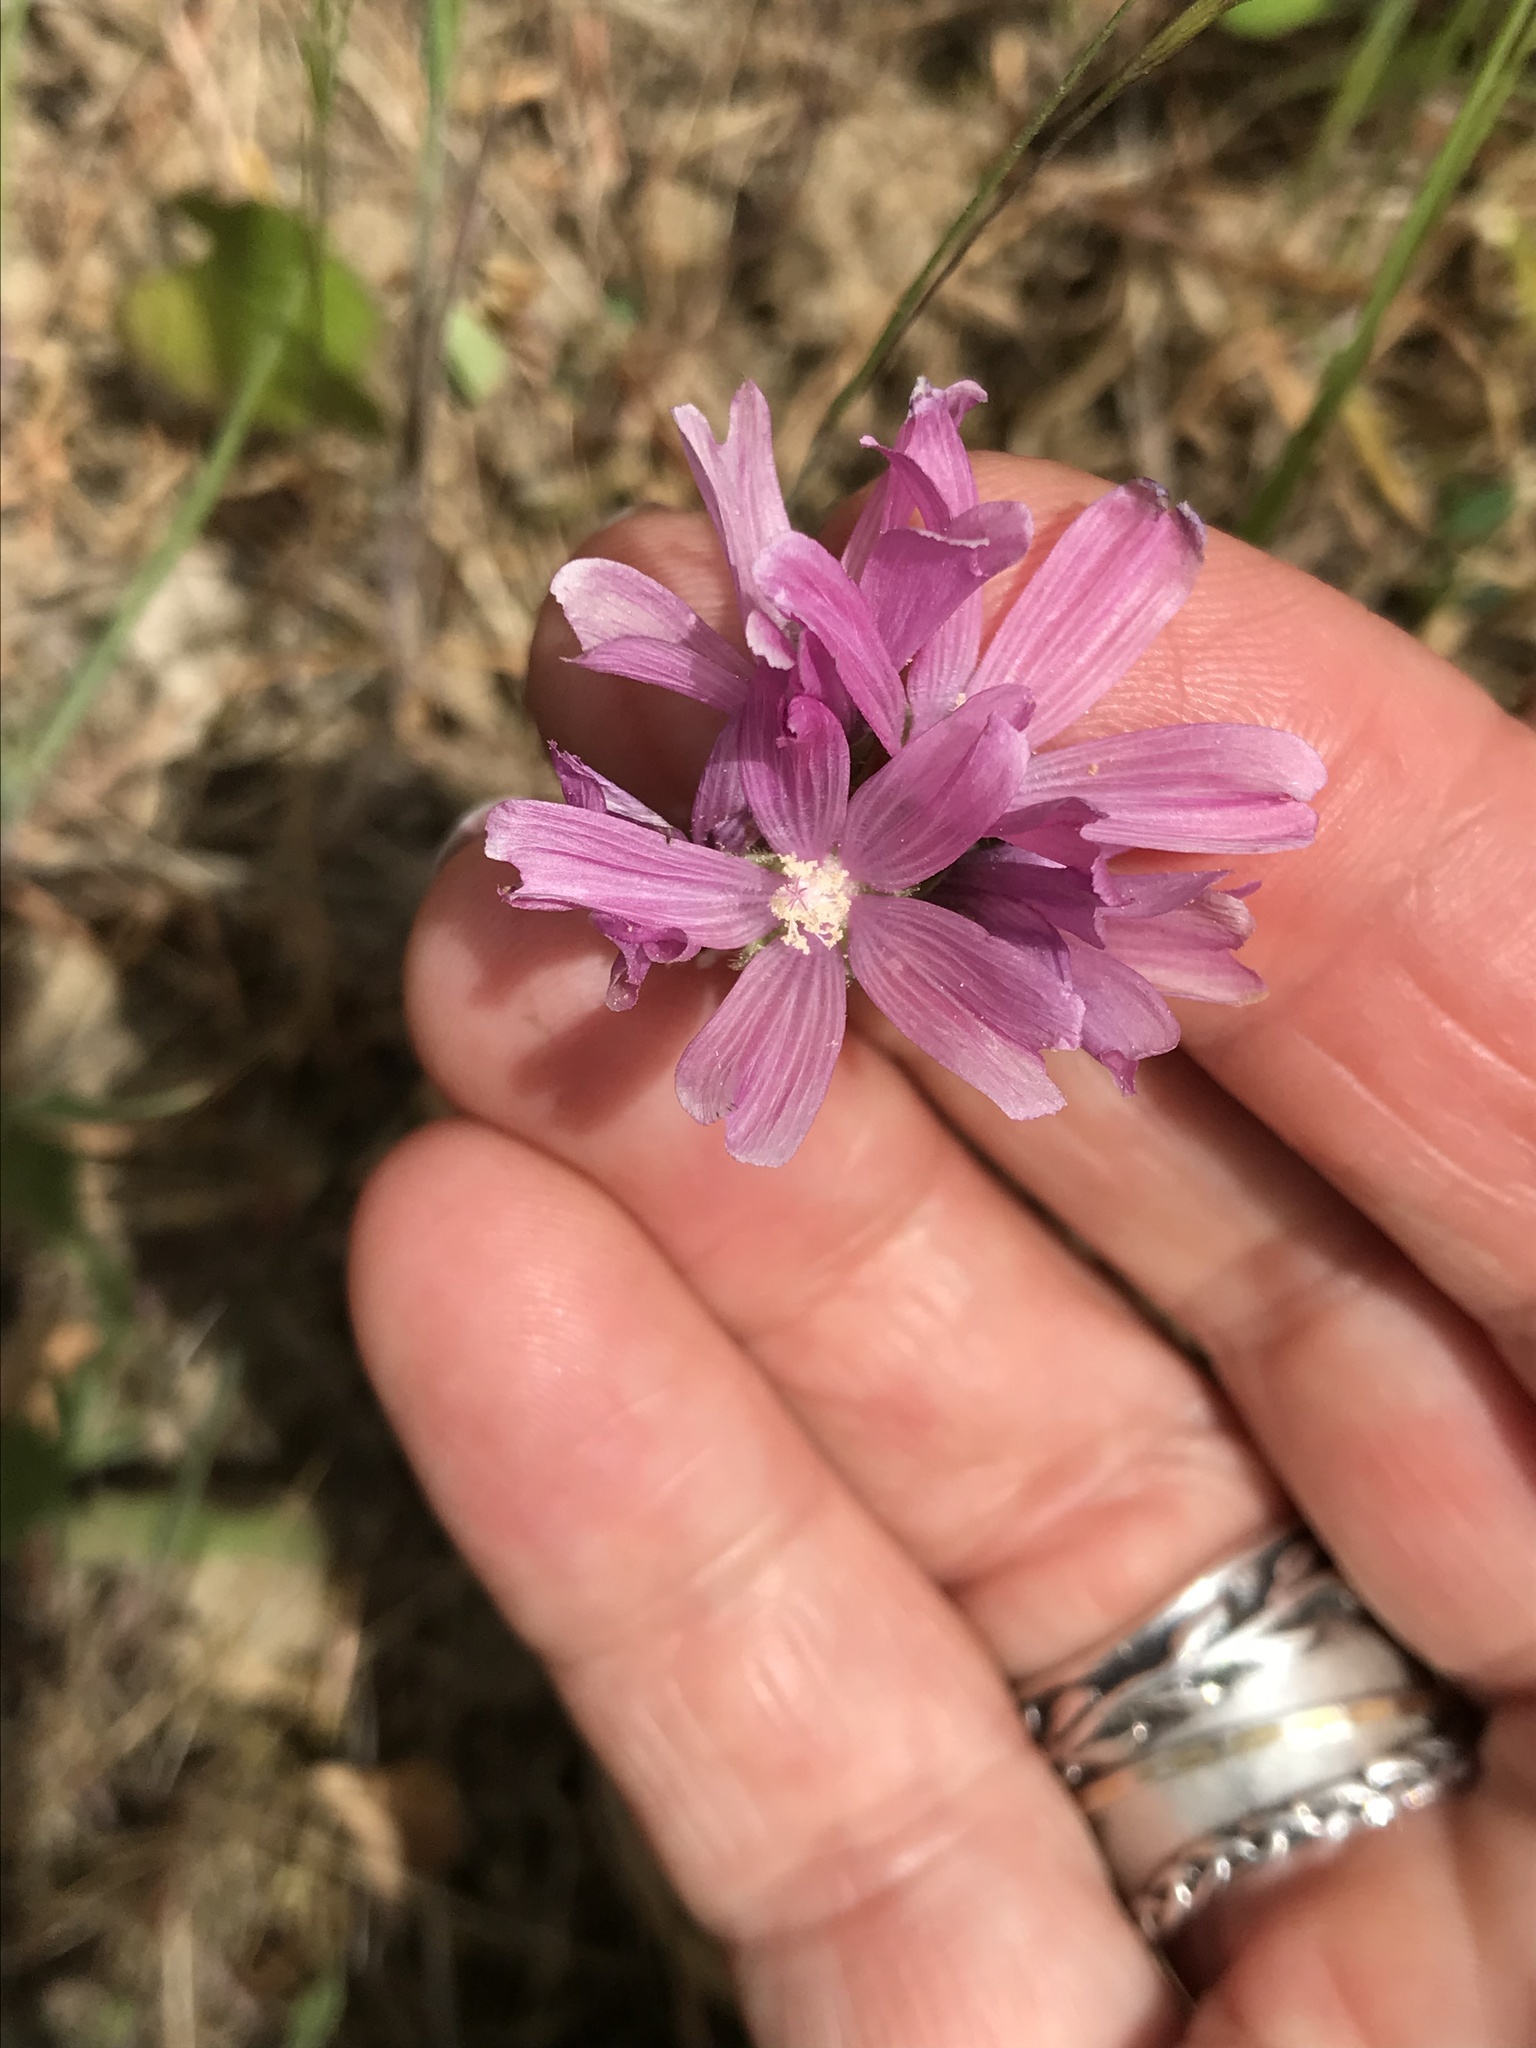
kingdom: Plantae
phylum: Tracheophyta
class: Magnoliopsida
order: Malvales
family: Malvaceae
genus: Sidalcea
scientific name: Sidalcea malviflora
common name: Greek mallow
